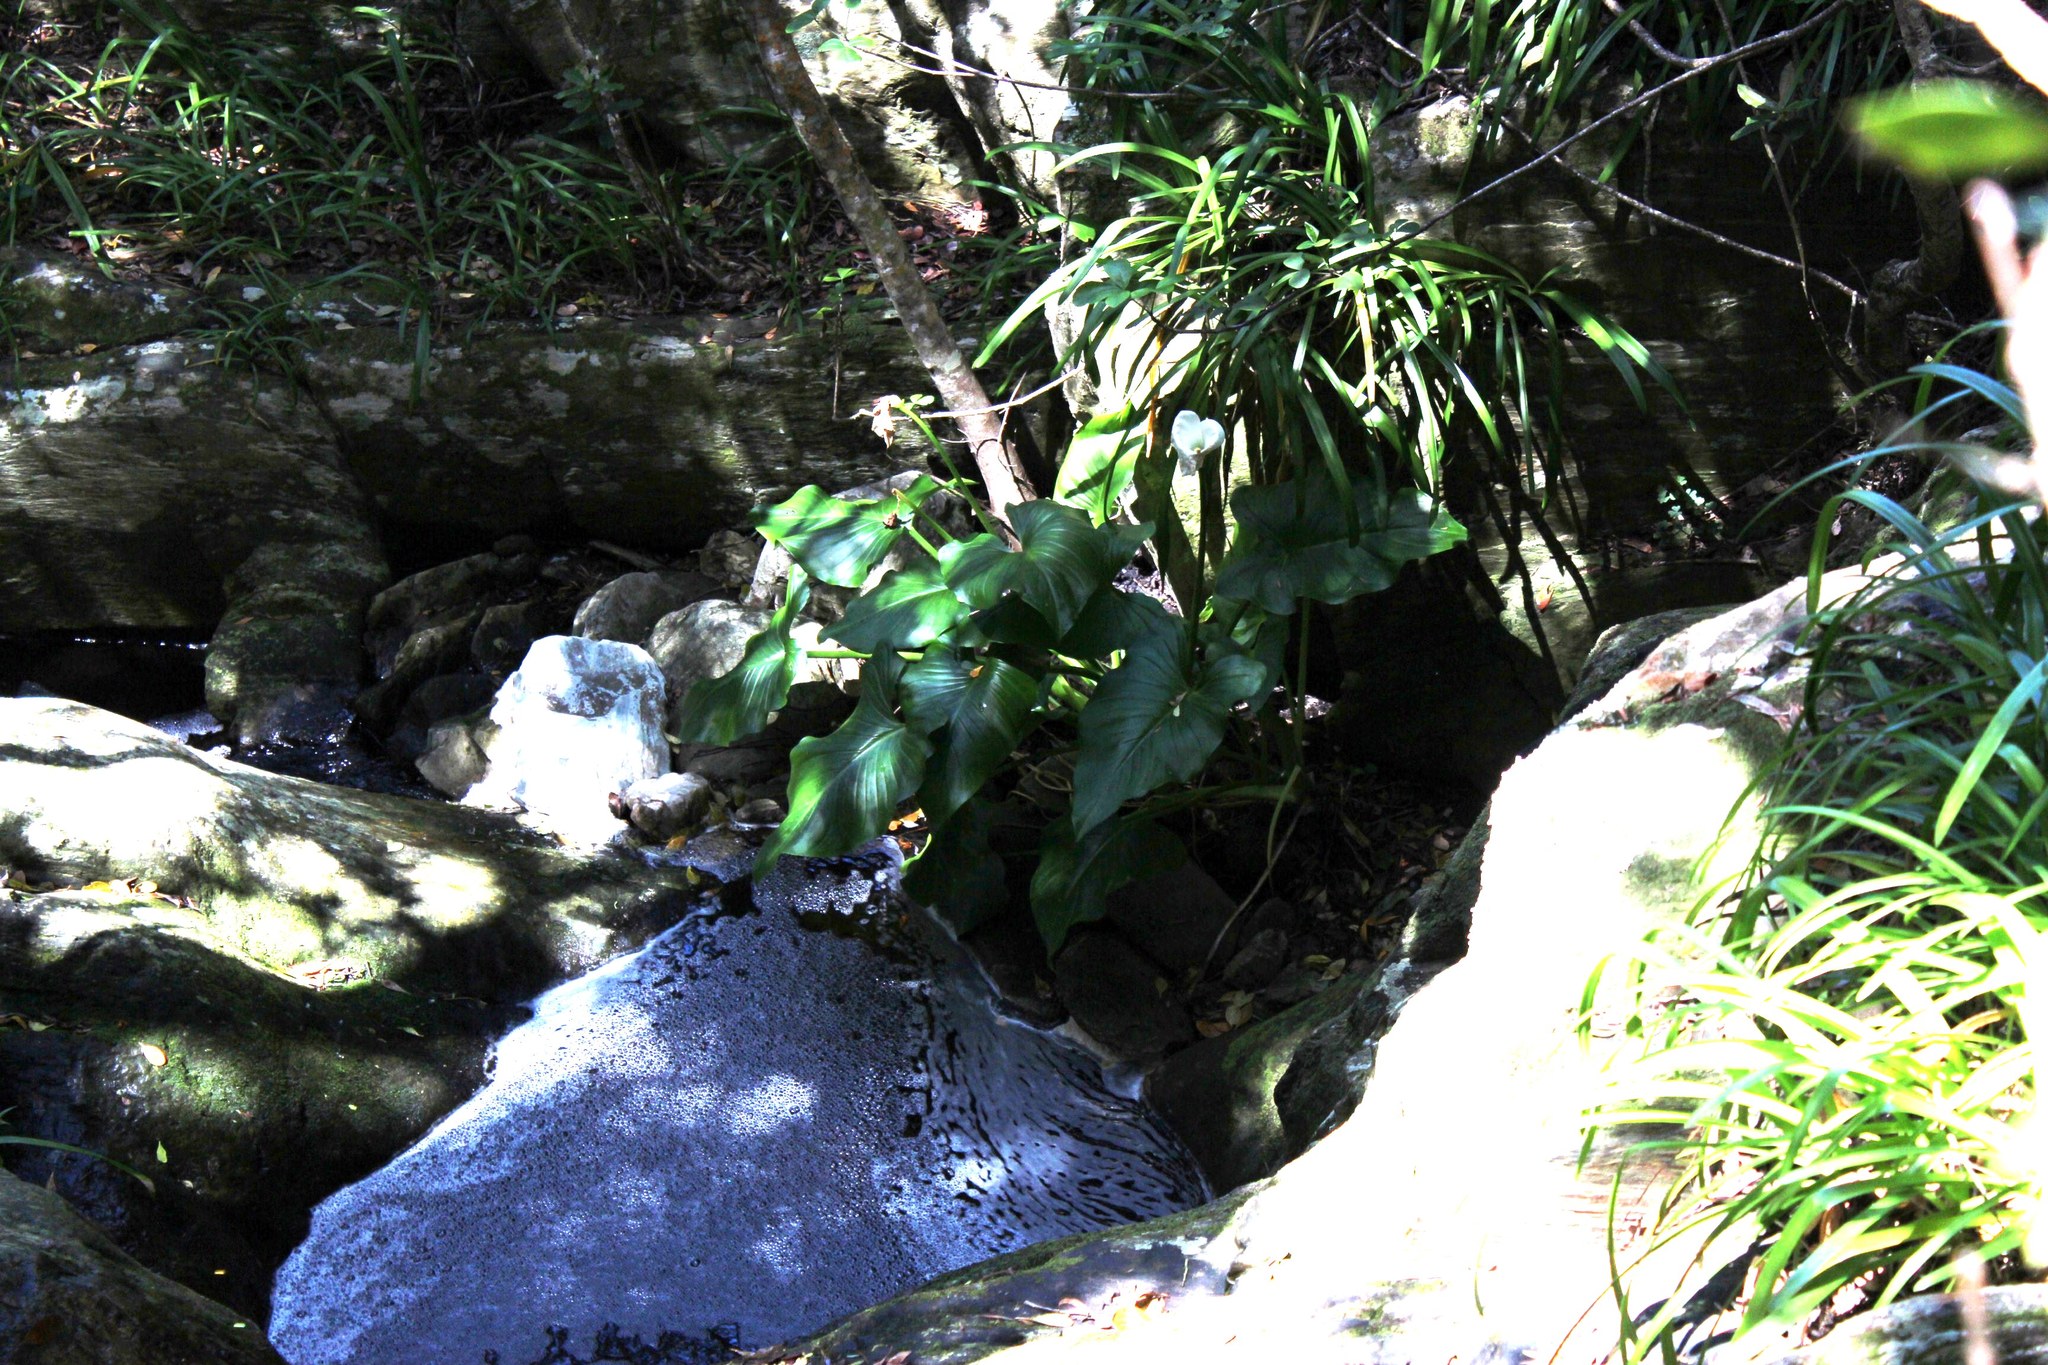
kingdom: Plantae
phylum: Tracheophyta
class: Liliopsida
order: Alismatales
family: Araceae
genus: Zantedeschia
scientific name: Zantedeschia aethiopica
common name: Altar-lily
